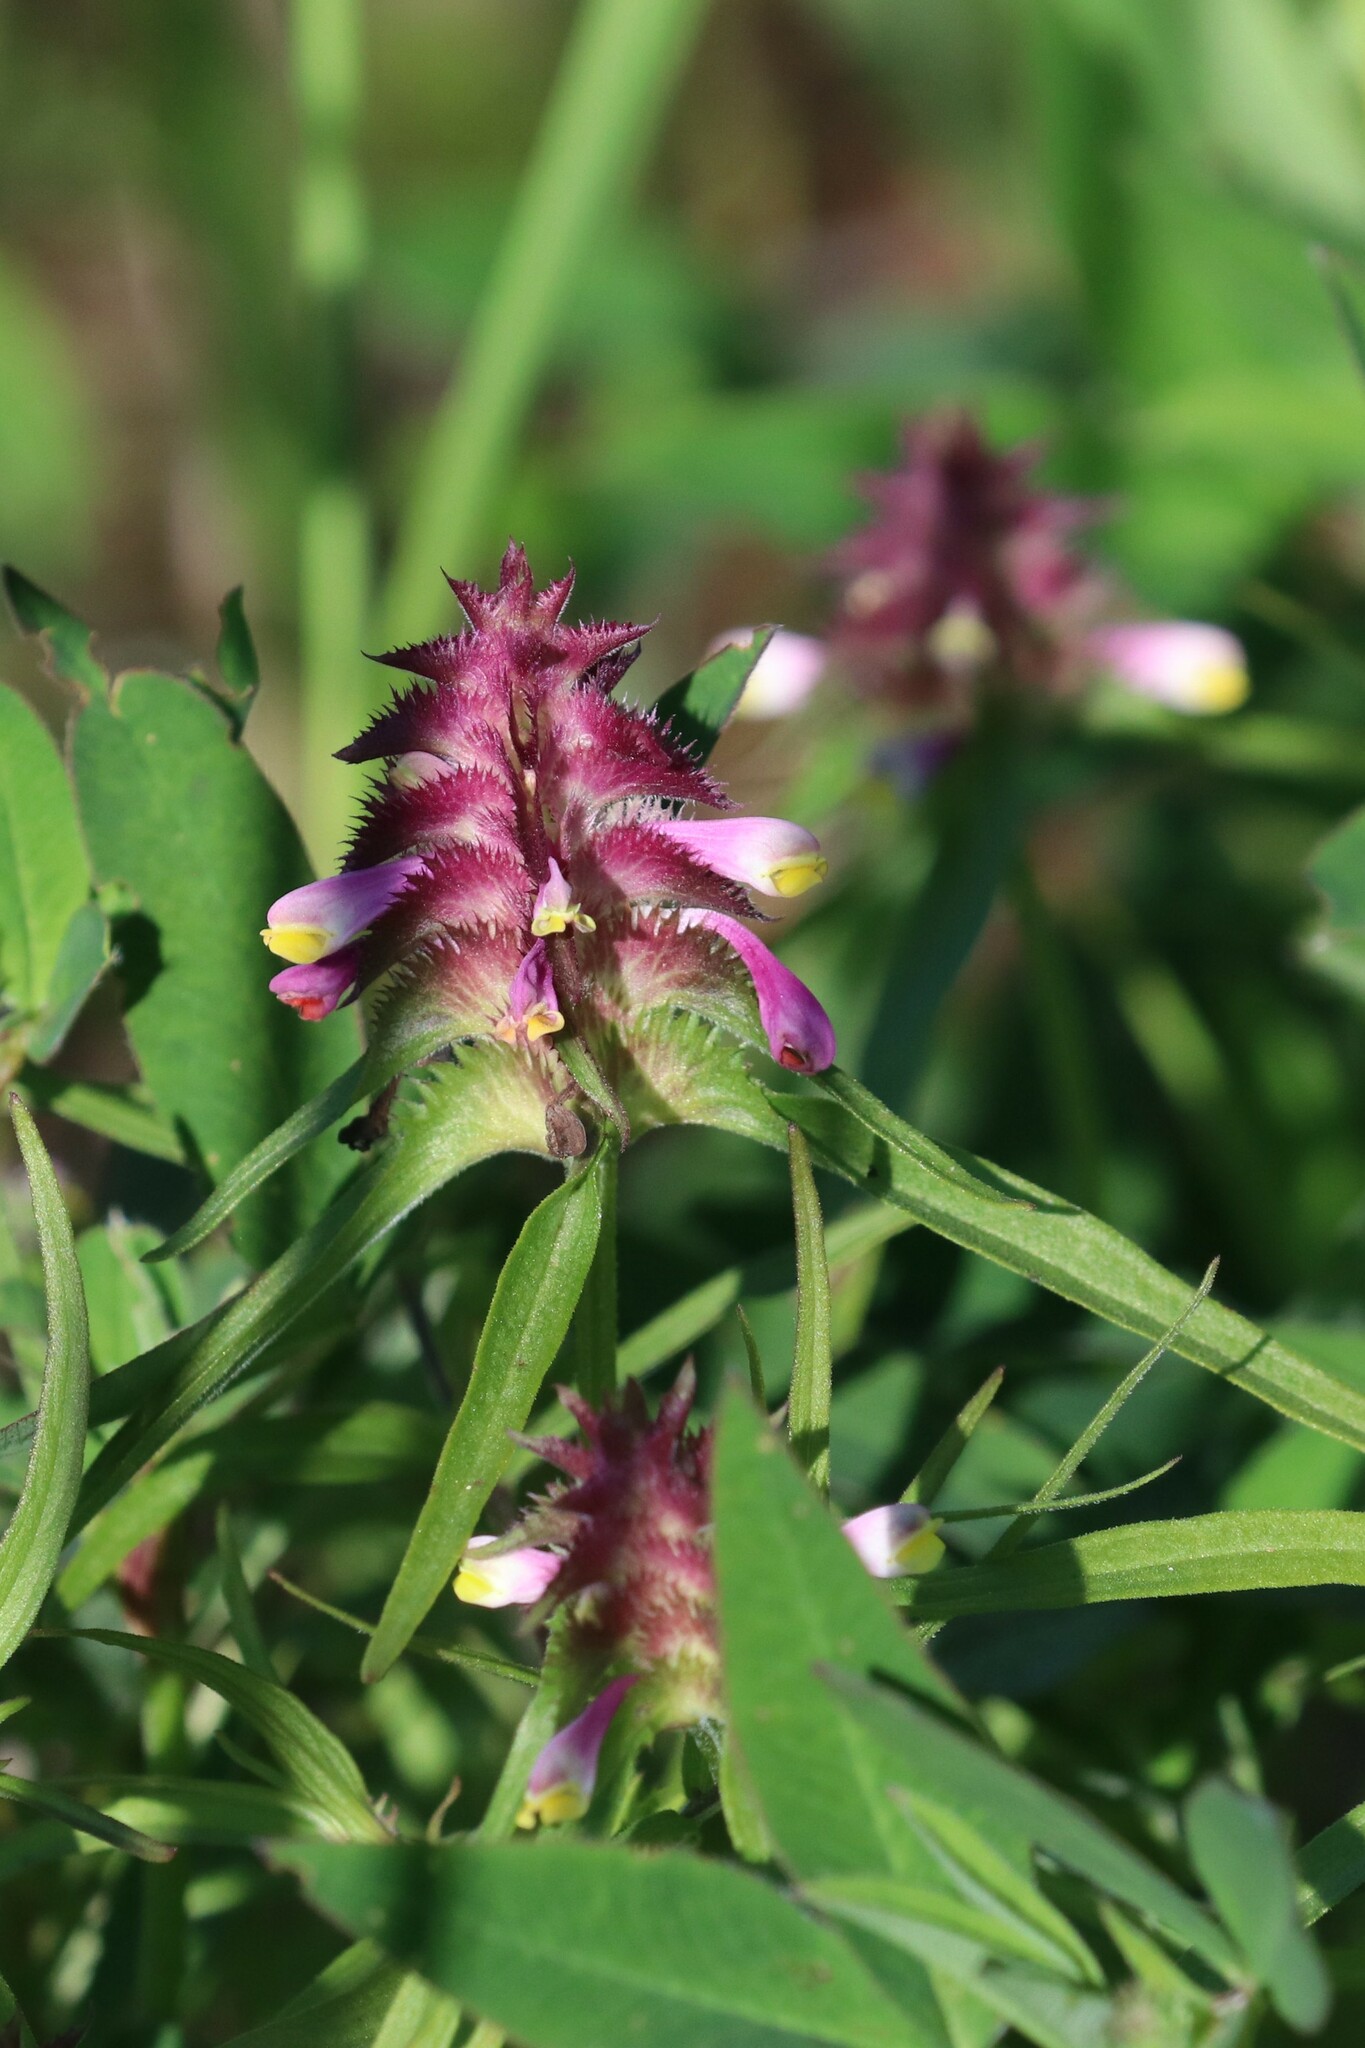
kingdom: Plantae
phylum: Tracheophyta
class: Magnoliopsida
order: Lamiales
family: Orobanchaceae
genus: Melampyrum
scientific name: Melampyrum cristatum
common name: Crested cow-wheat
